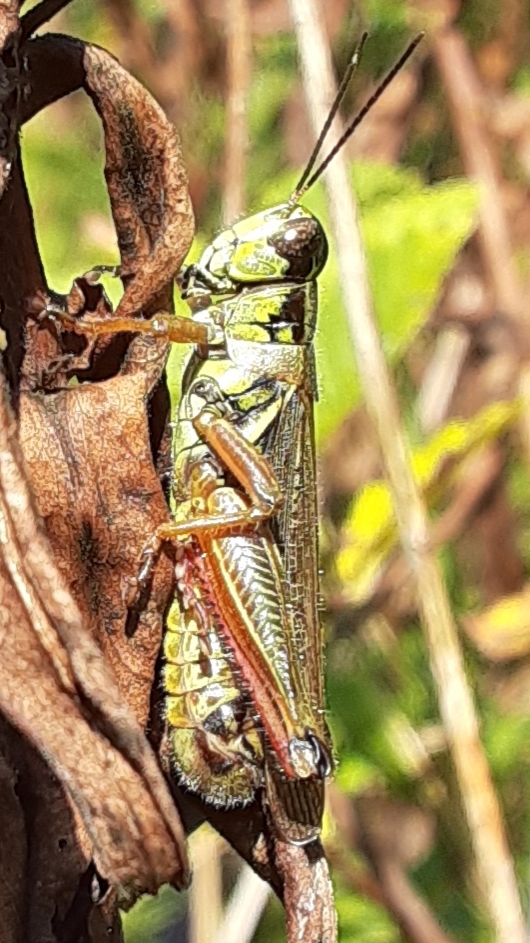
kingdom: Animalia
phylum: Arthropoda
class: Insecta
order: Orthoptera
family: Acrididae
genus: Melanoplus
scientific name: Melanoplus femurrubrum
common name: Red-legged grasshopper
